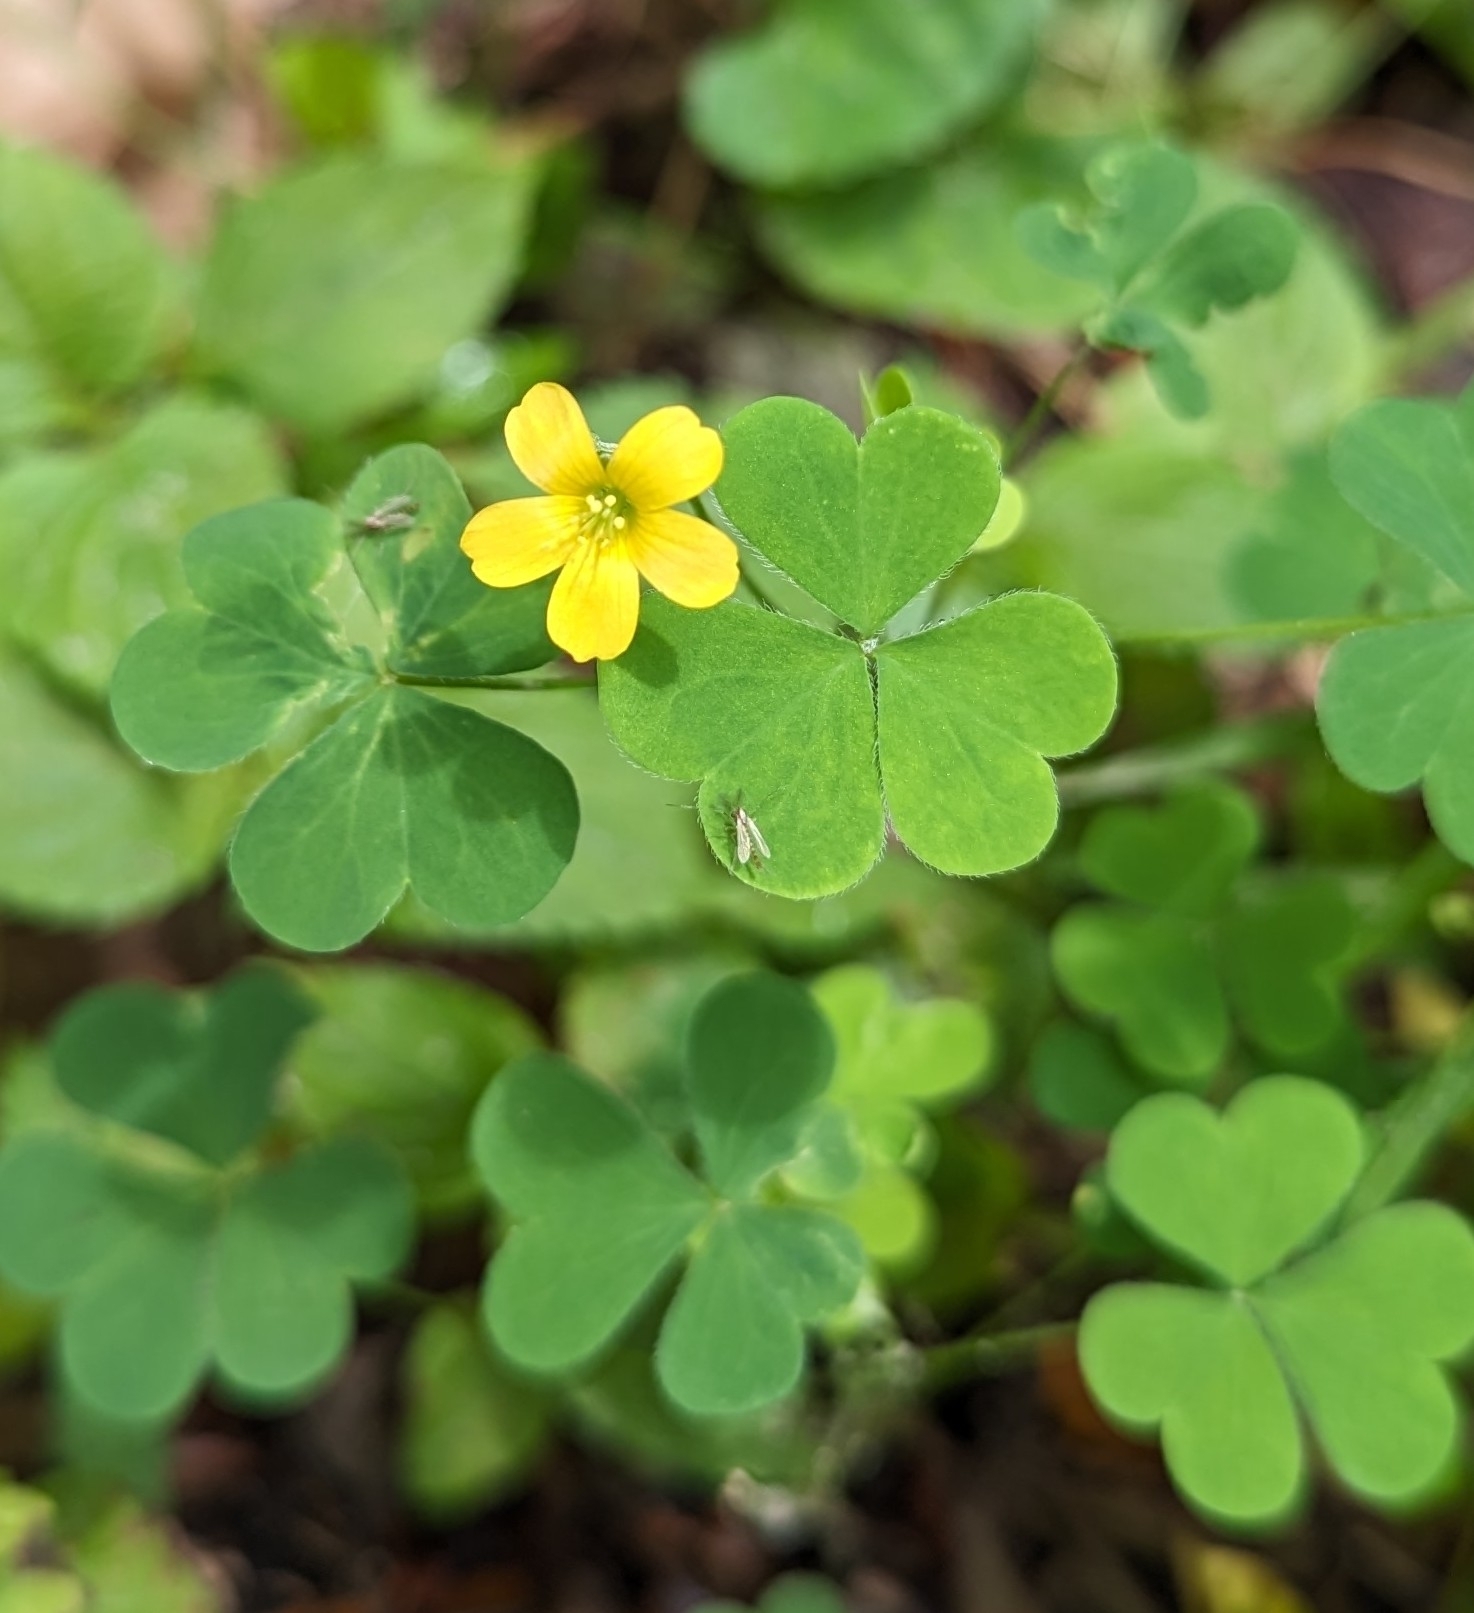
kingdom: Plantae
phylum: Tracheophyta
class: Magnoliopsida
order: Oxalidales
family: Oxalidaceae
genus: Oxalis
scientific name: Oxalis stricta
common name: Upright yellow-sorrel
